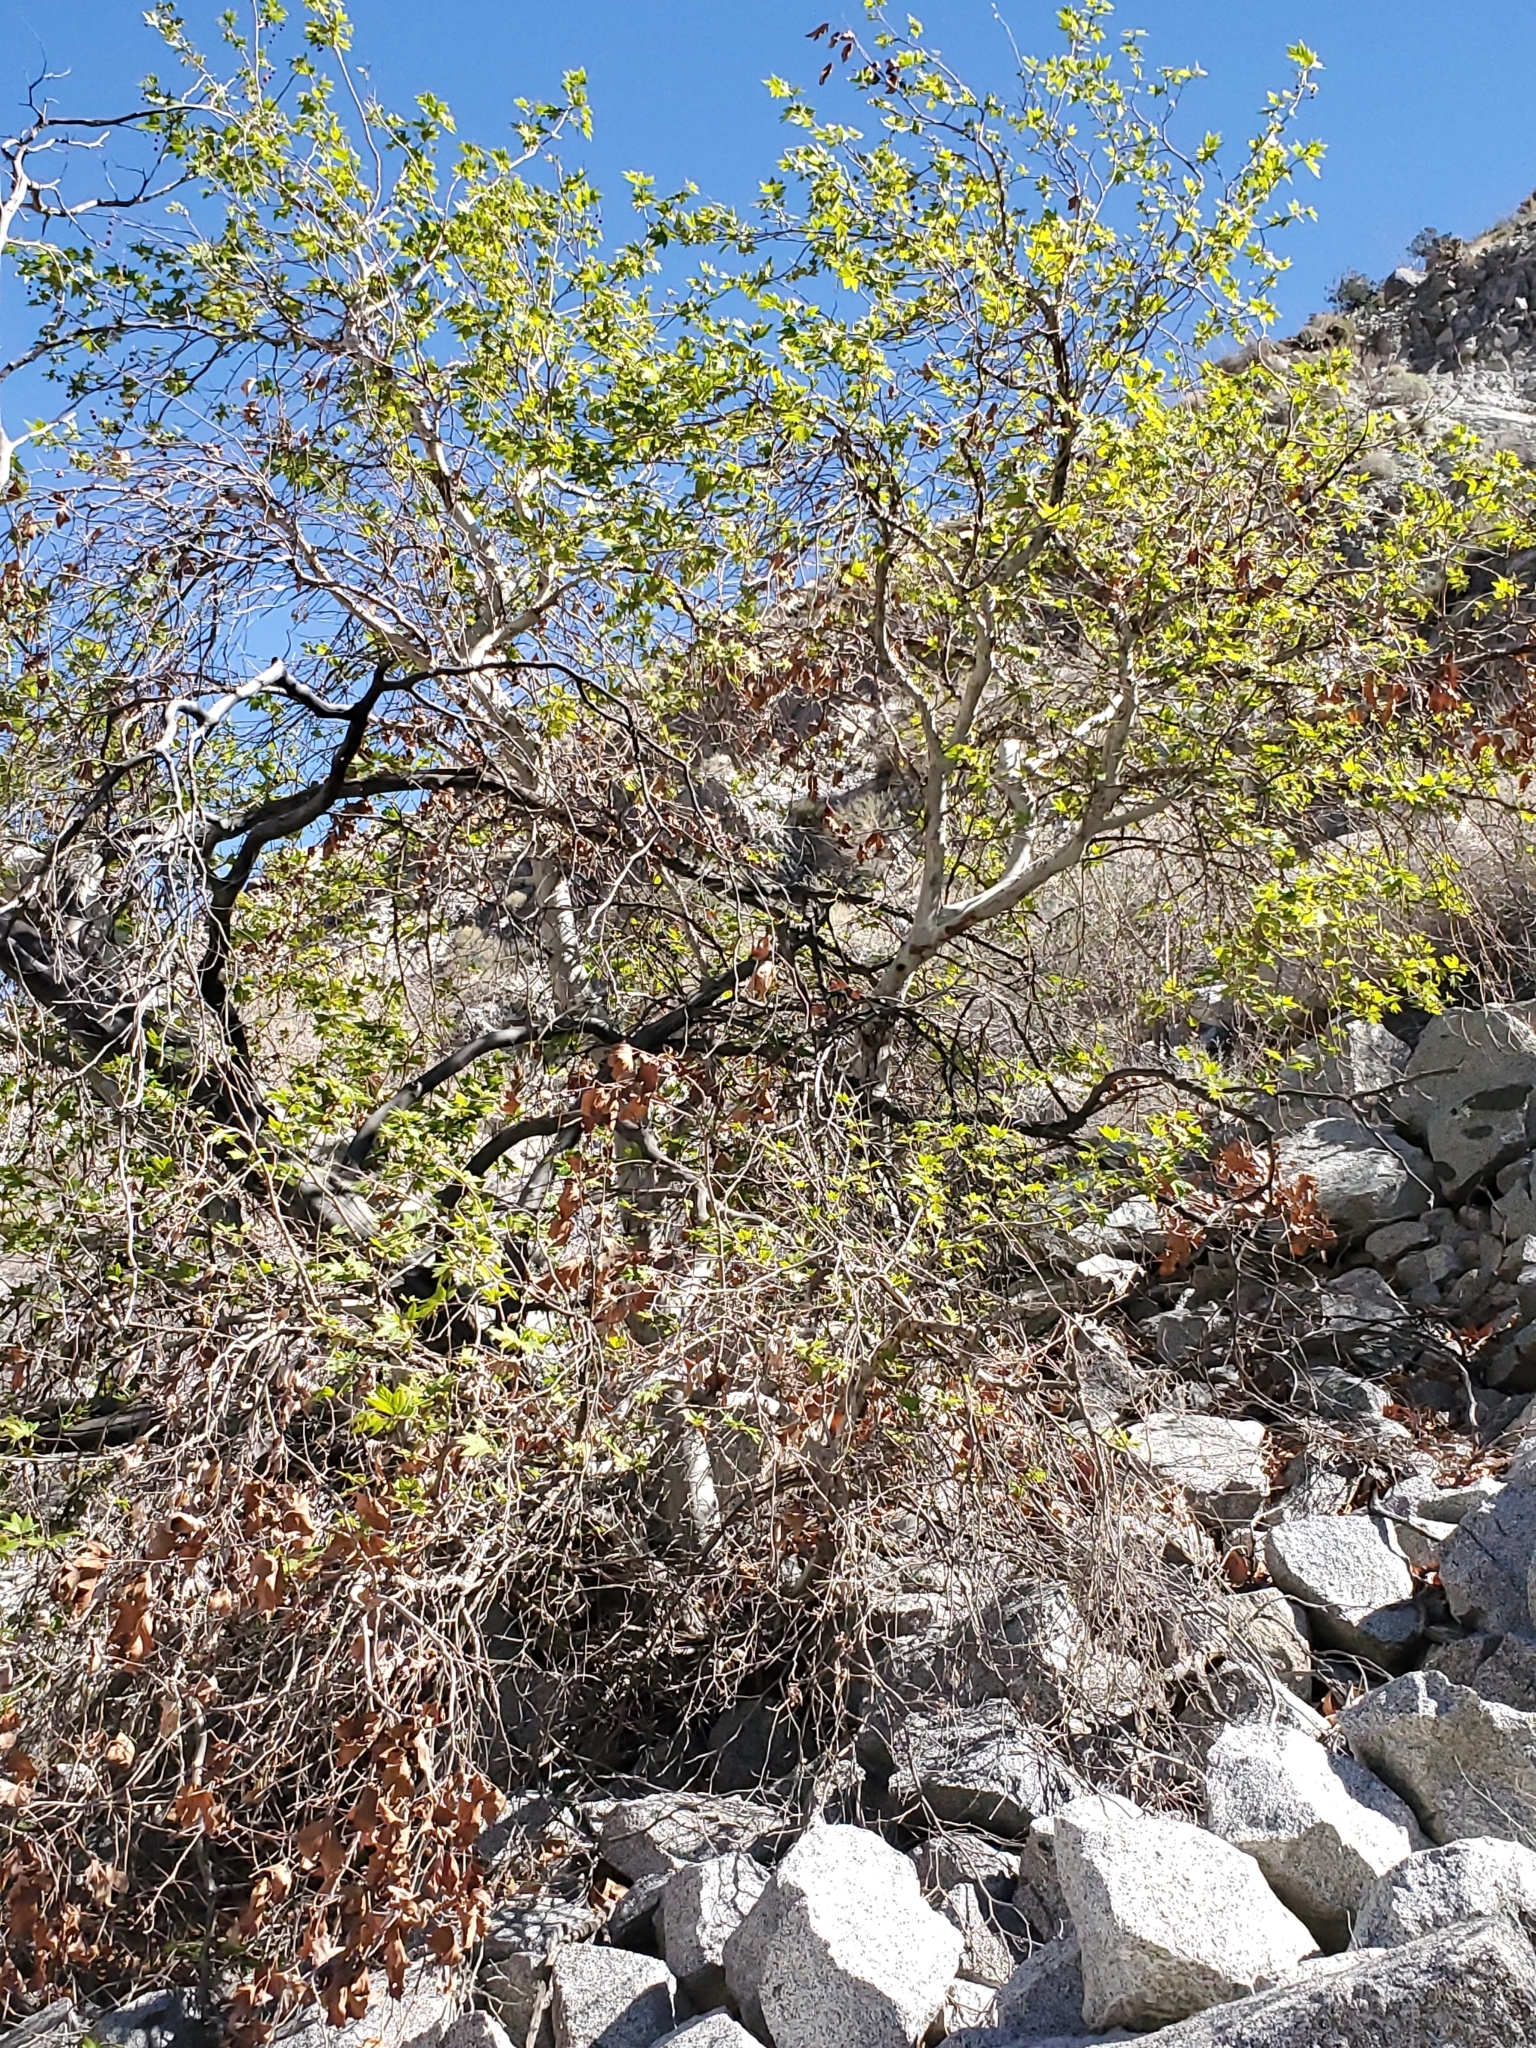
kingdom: Plantae
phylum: Tracheophyta
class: Magnoliopsida
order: Proteales
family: Platanaceae
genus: Platanus
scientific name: Platanus racemosa
